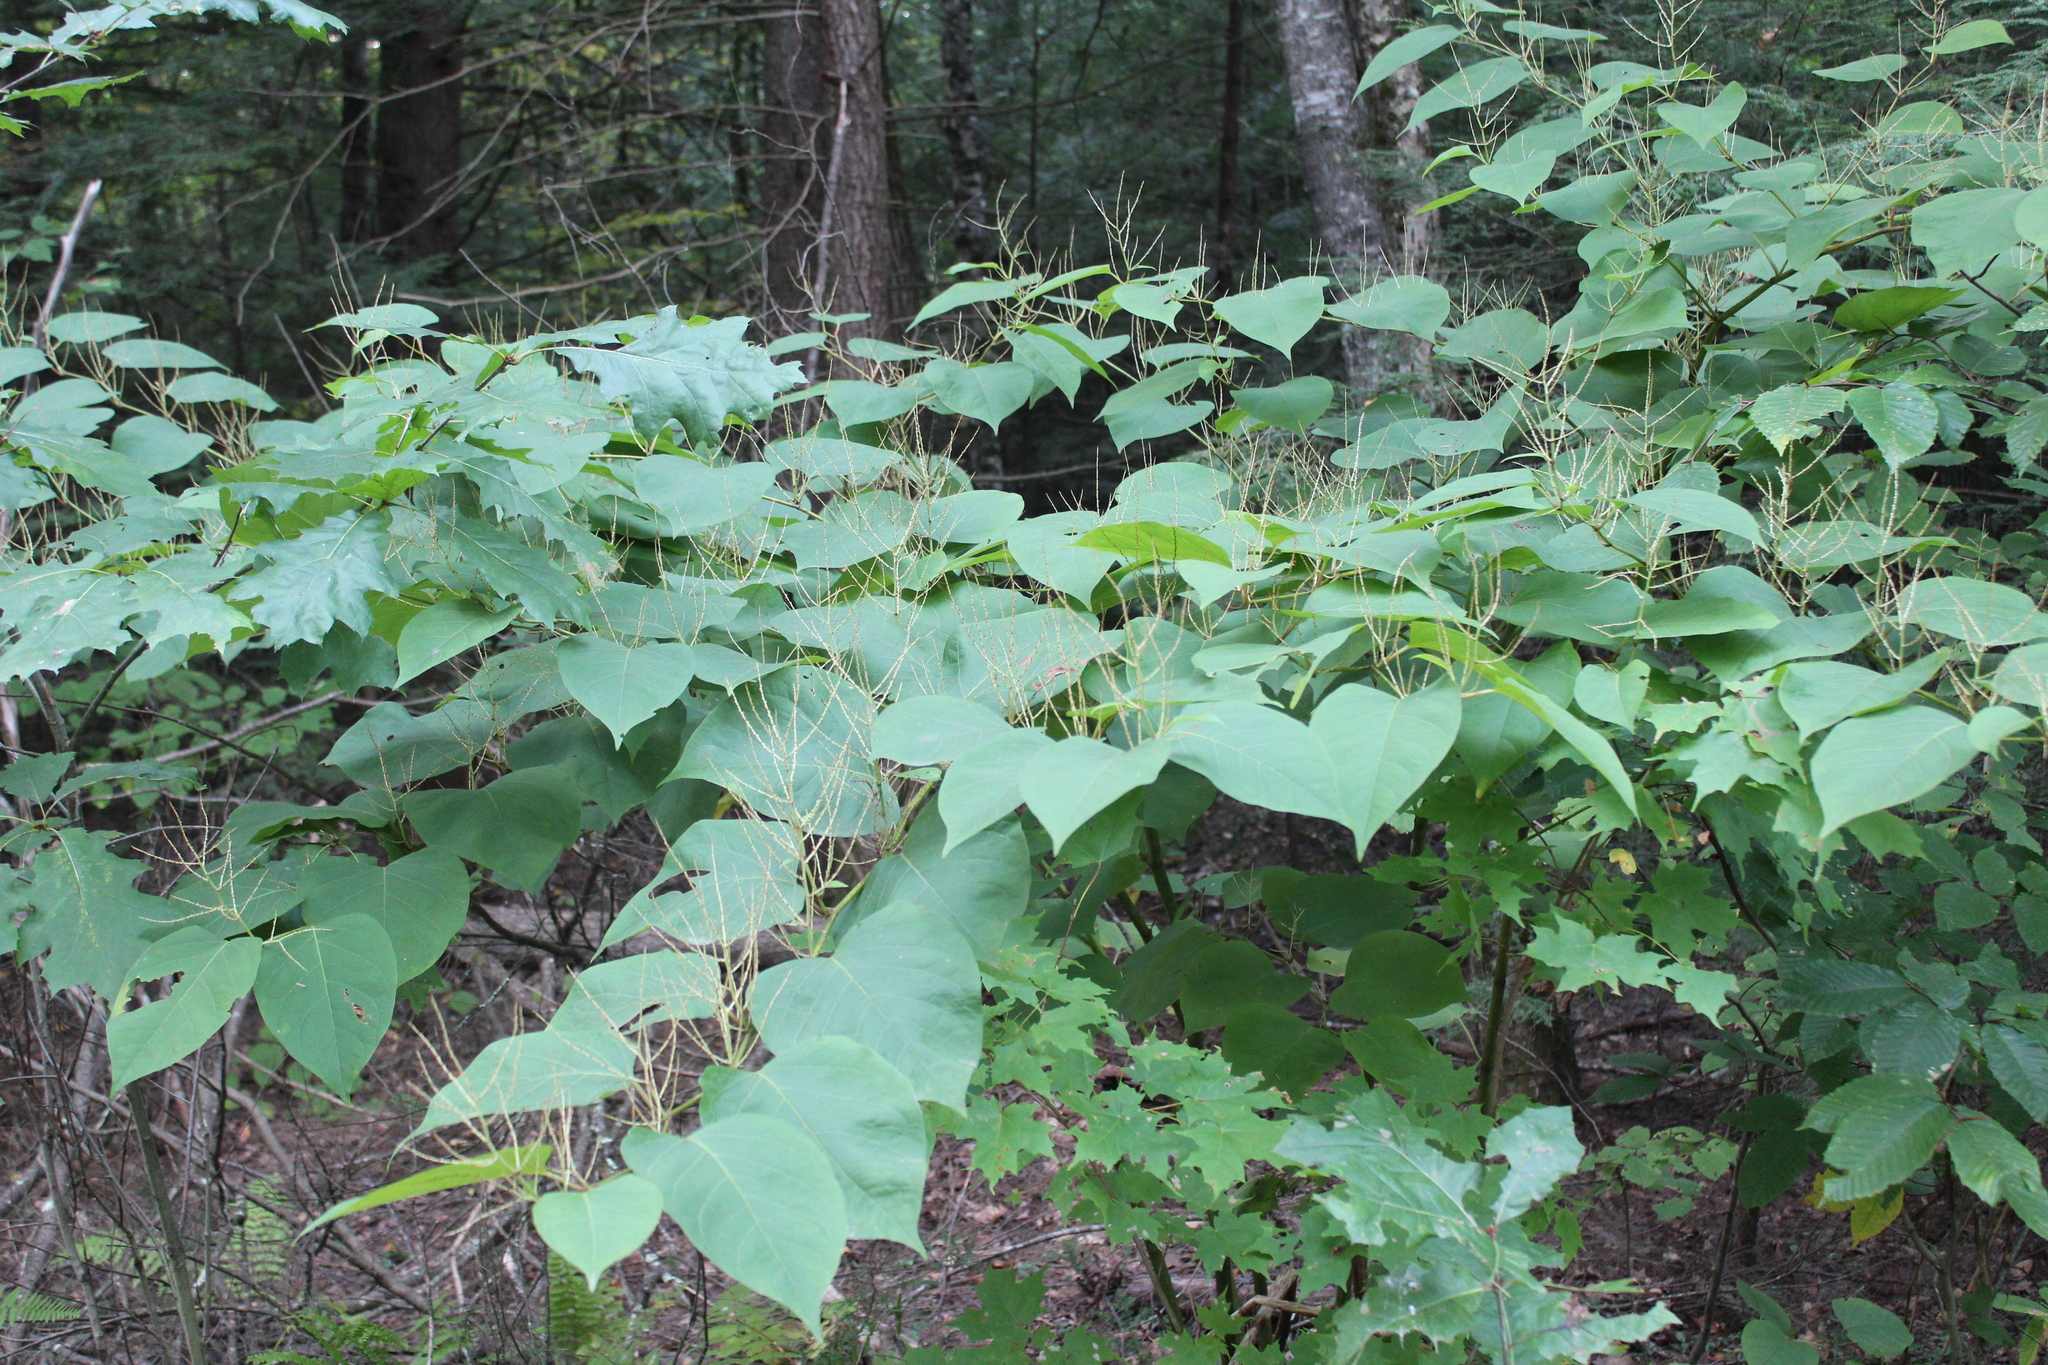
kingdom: Plantae
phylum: Tracheophyta
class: Magnoliopsida
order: Caryophyllales
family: Polygonaceae
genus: Reynoutria
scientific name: Reynoutria japonica
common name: Japanese knotweed
